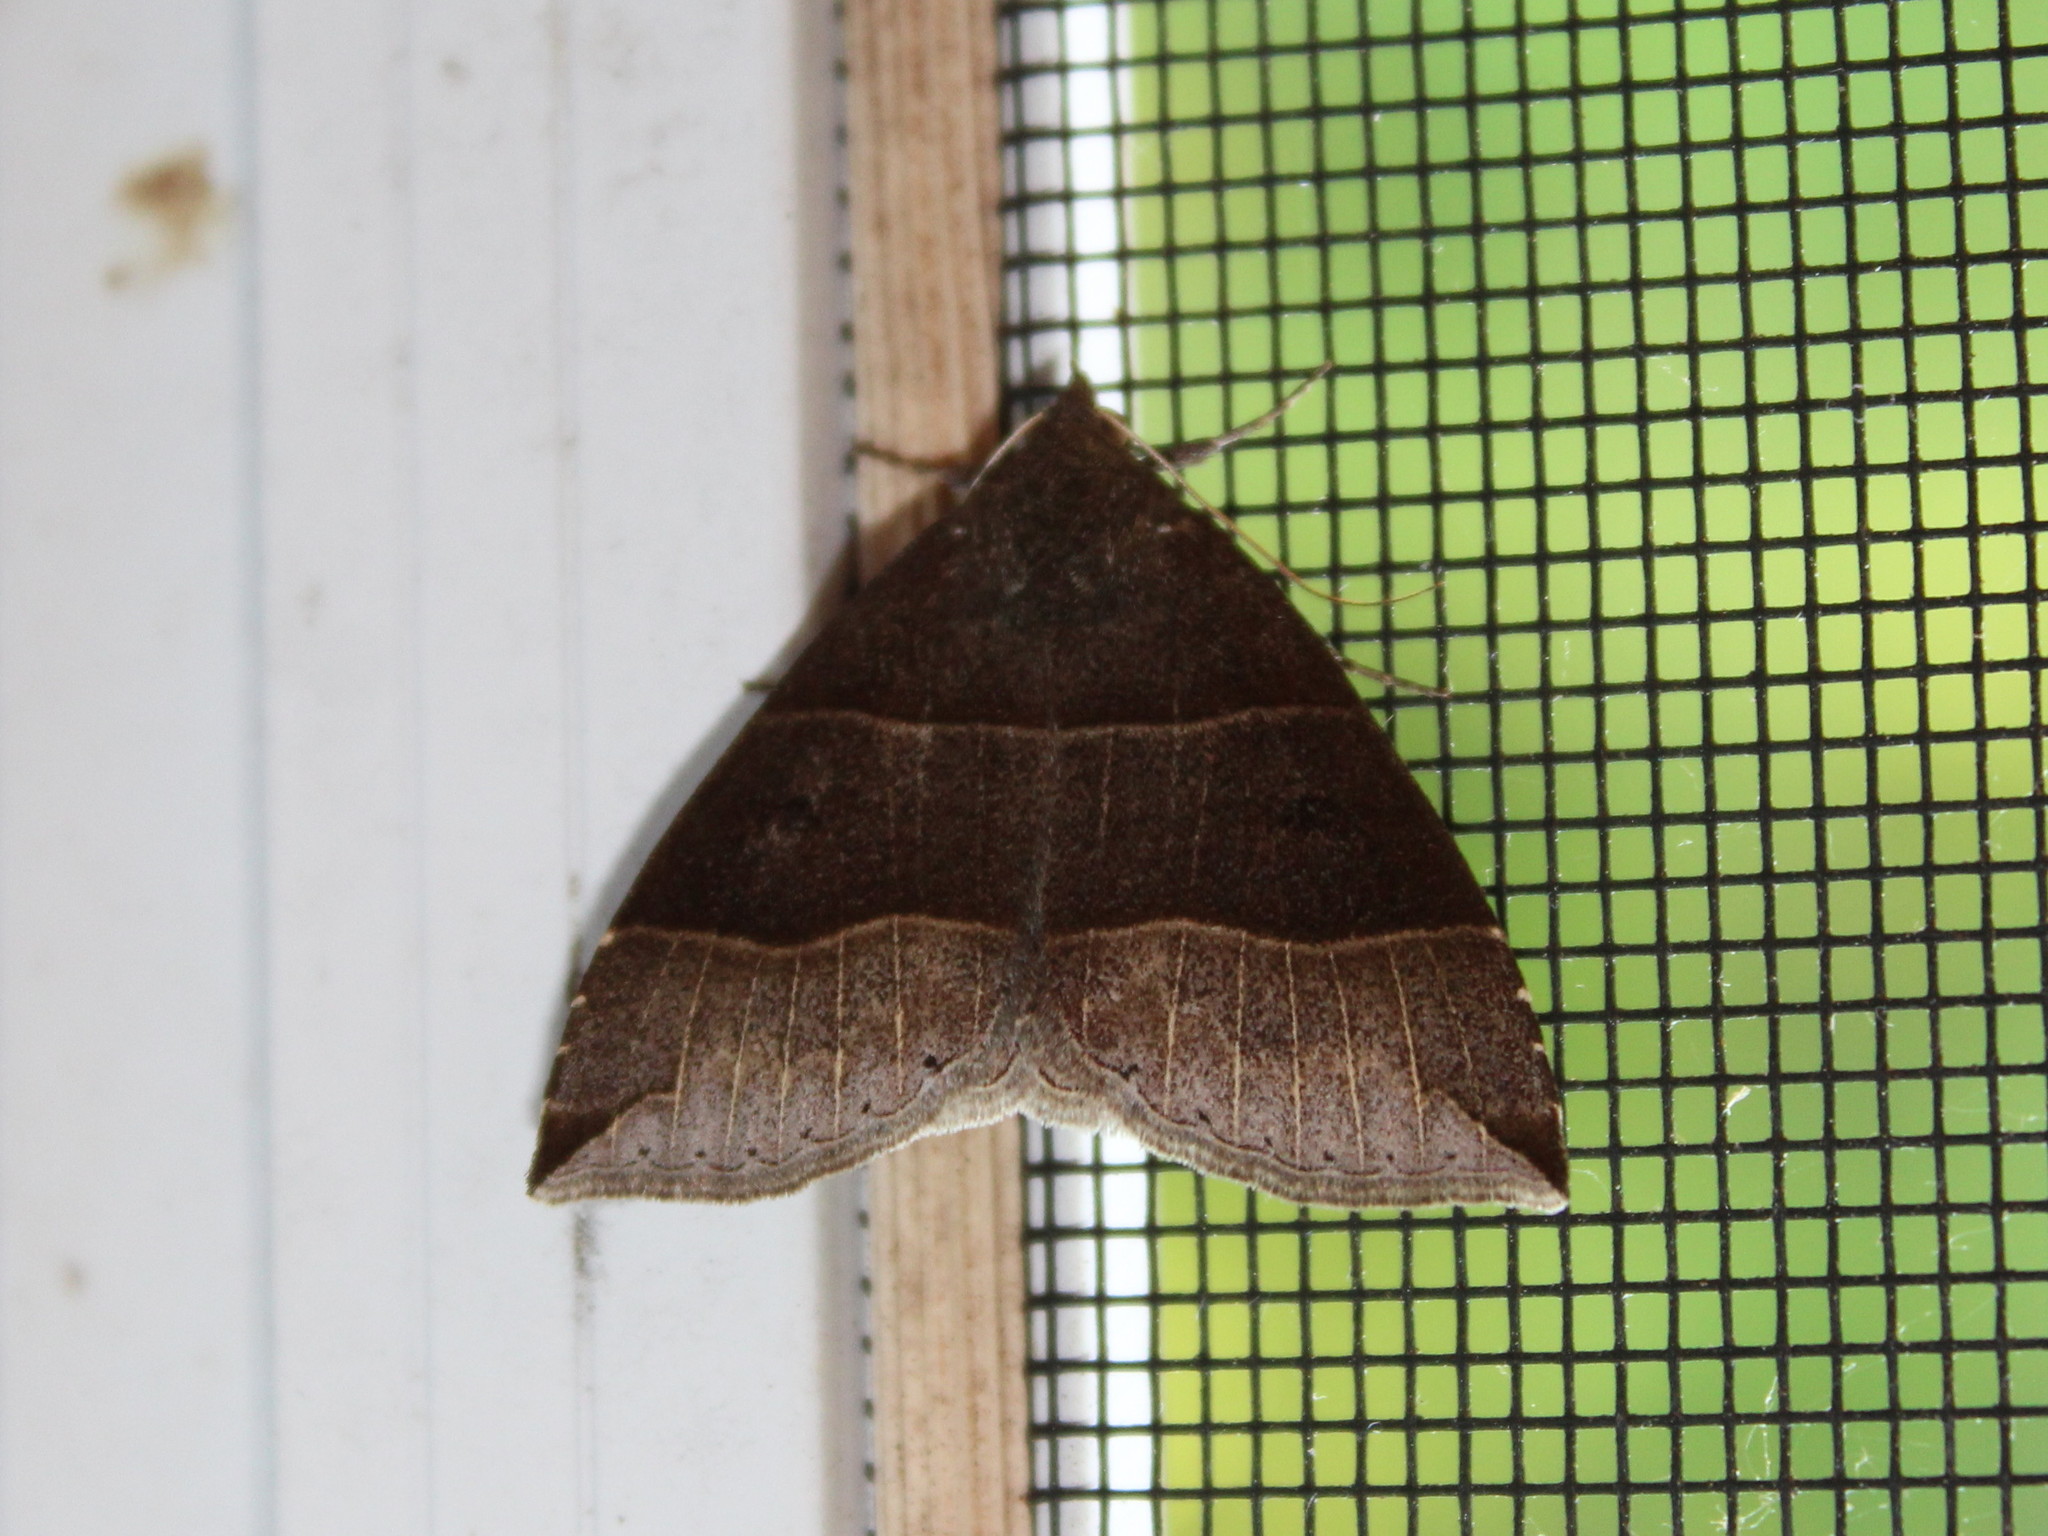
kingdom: Animalia
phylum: Arthropoda
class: Insecta
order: Lepidoptera
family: Erebidae
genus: Parallelia
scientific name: Parallelia bistriaris
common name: Maple looper moth
